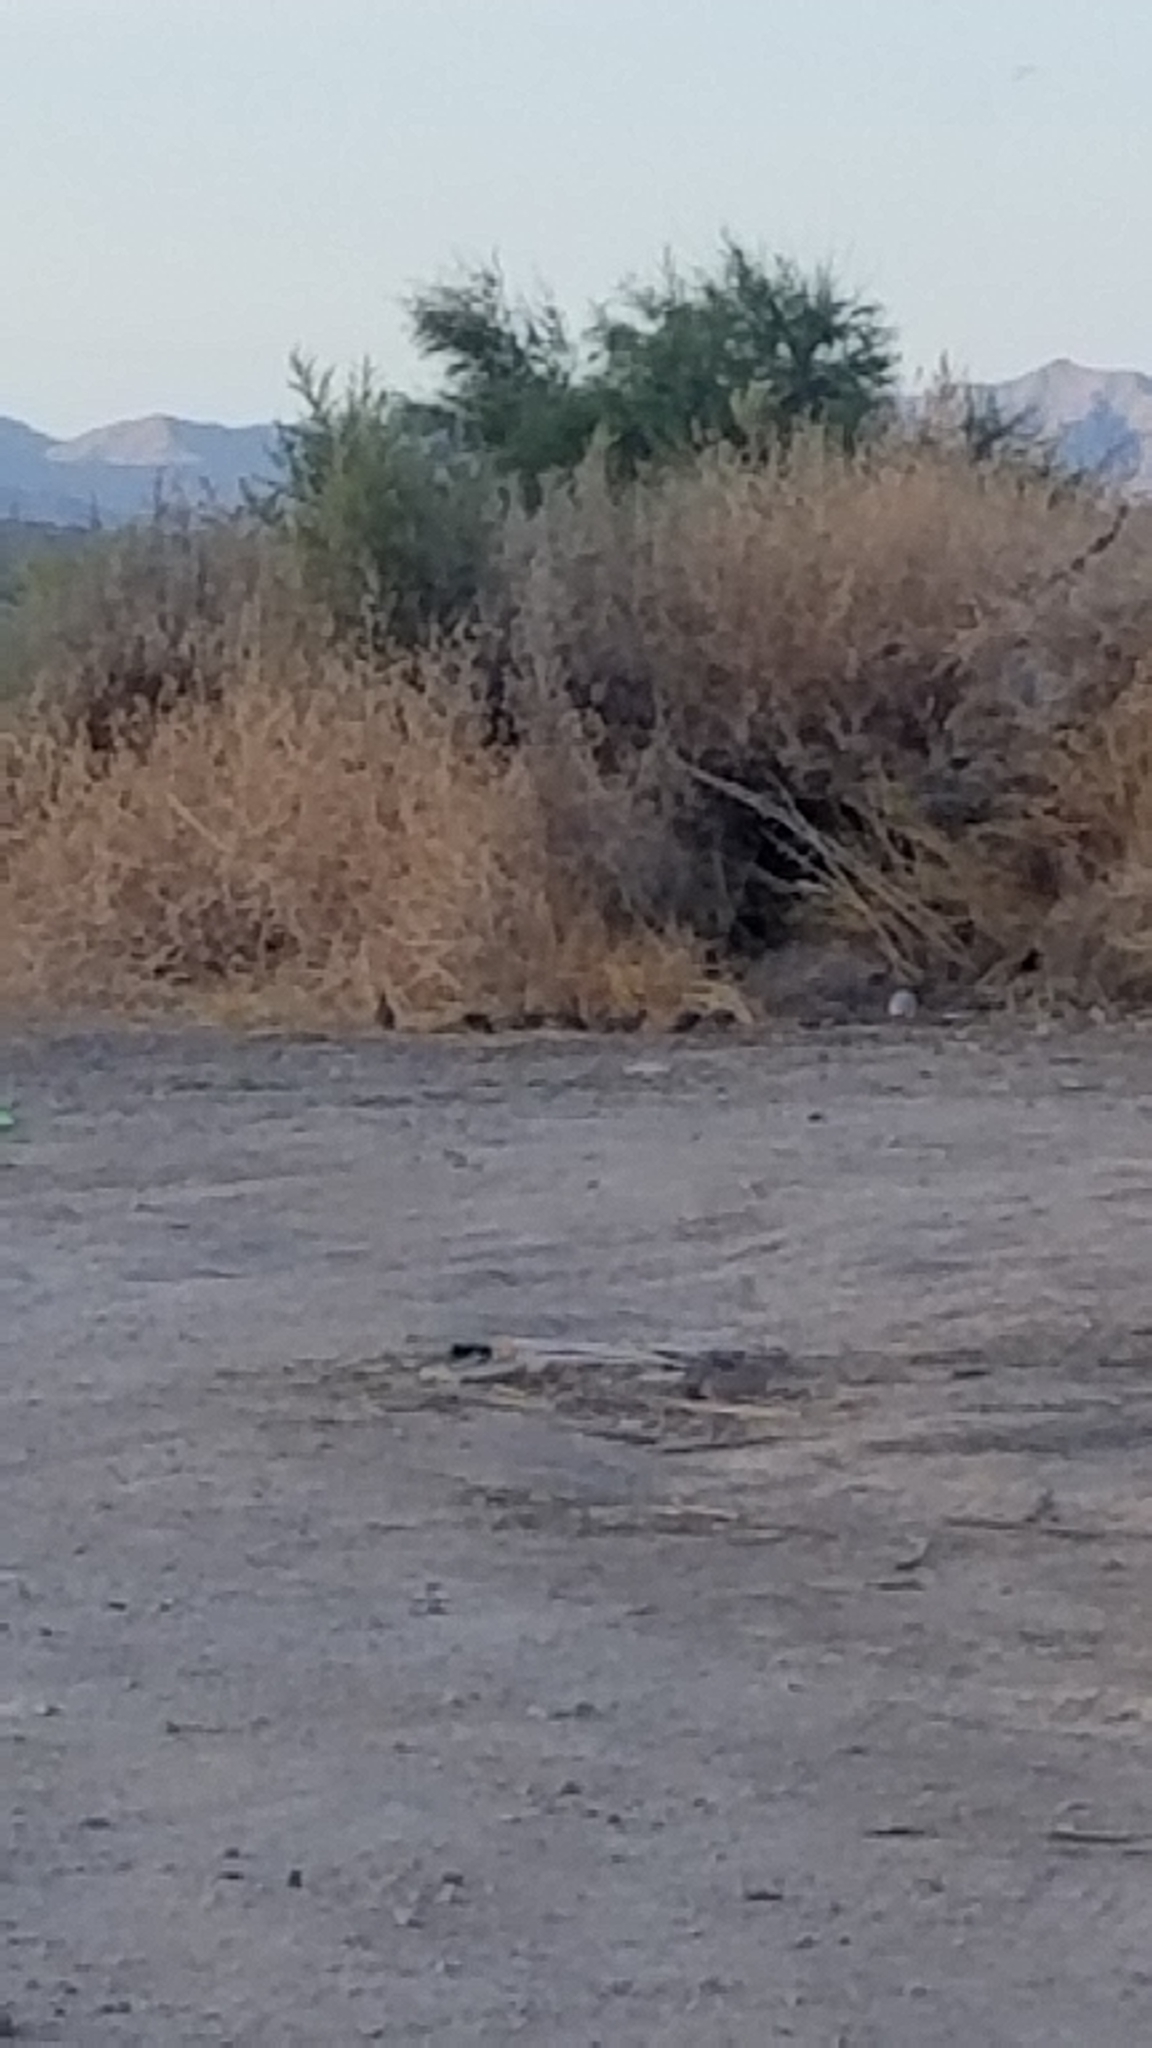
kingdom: Animalia
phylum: Chordata
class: Aves
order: Galliformes
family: Odontophoridae
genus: Callipepla
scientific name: Callipepla gambelii
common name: Gambel's quail
